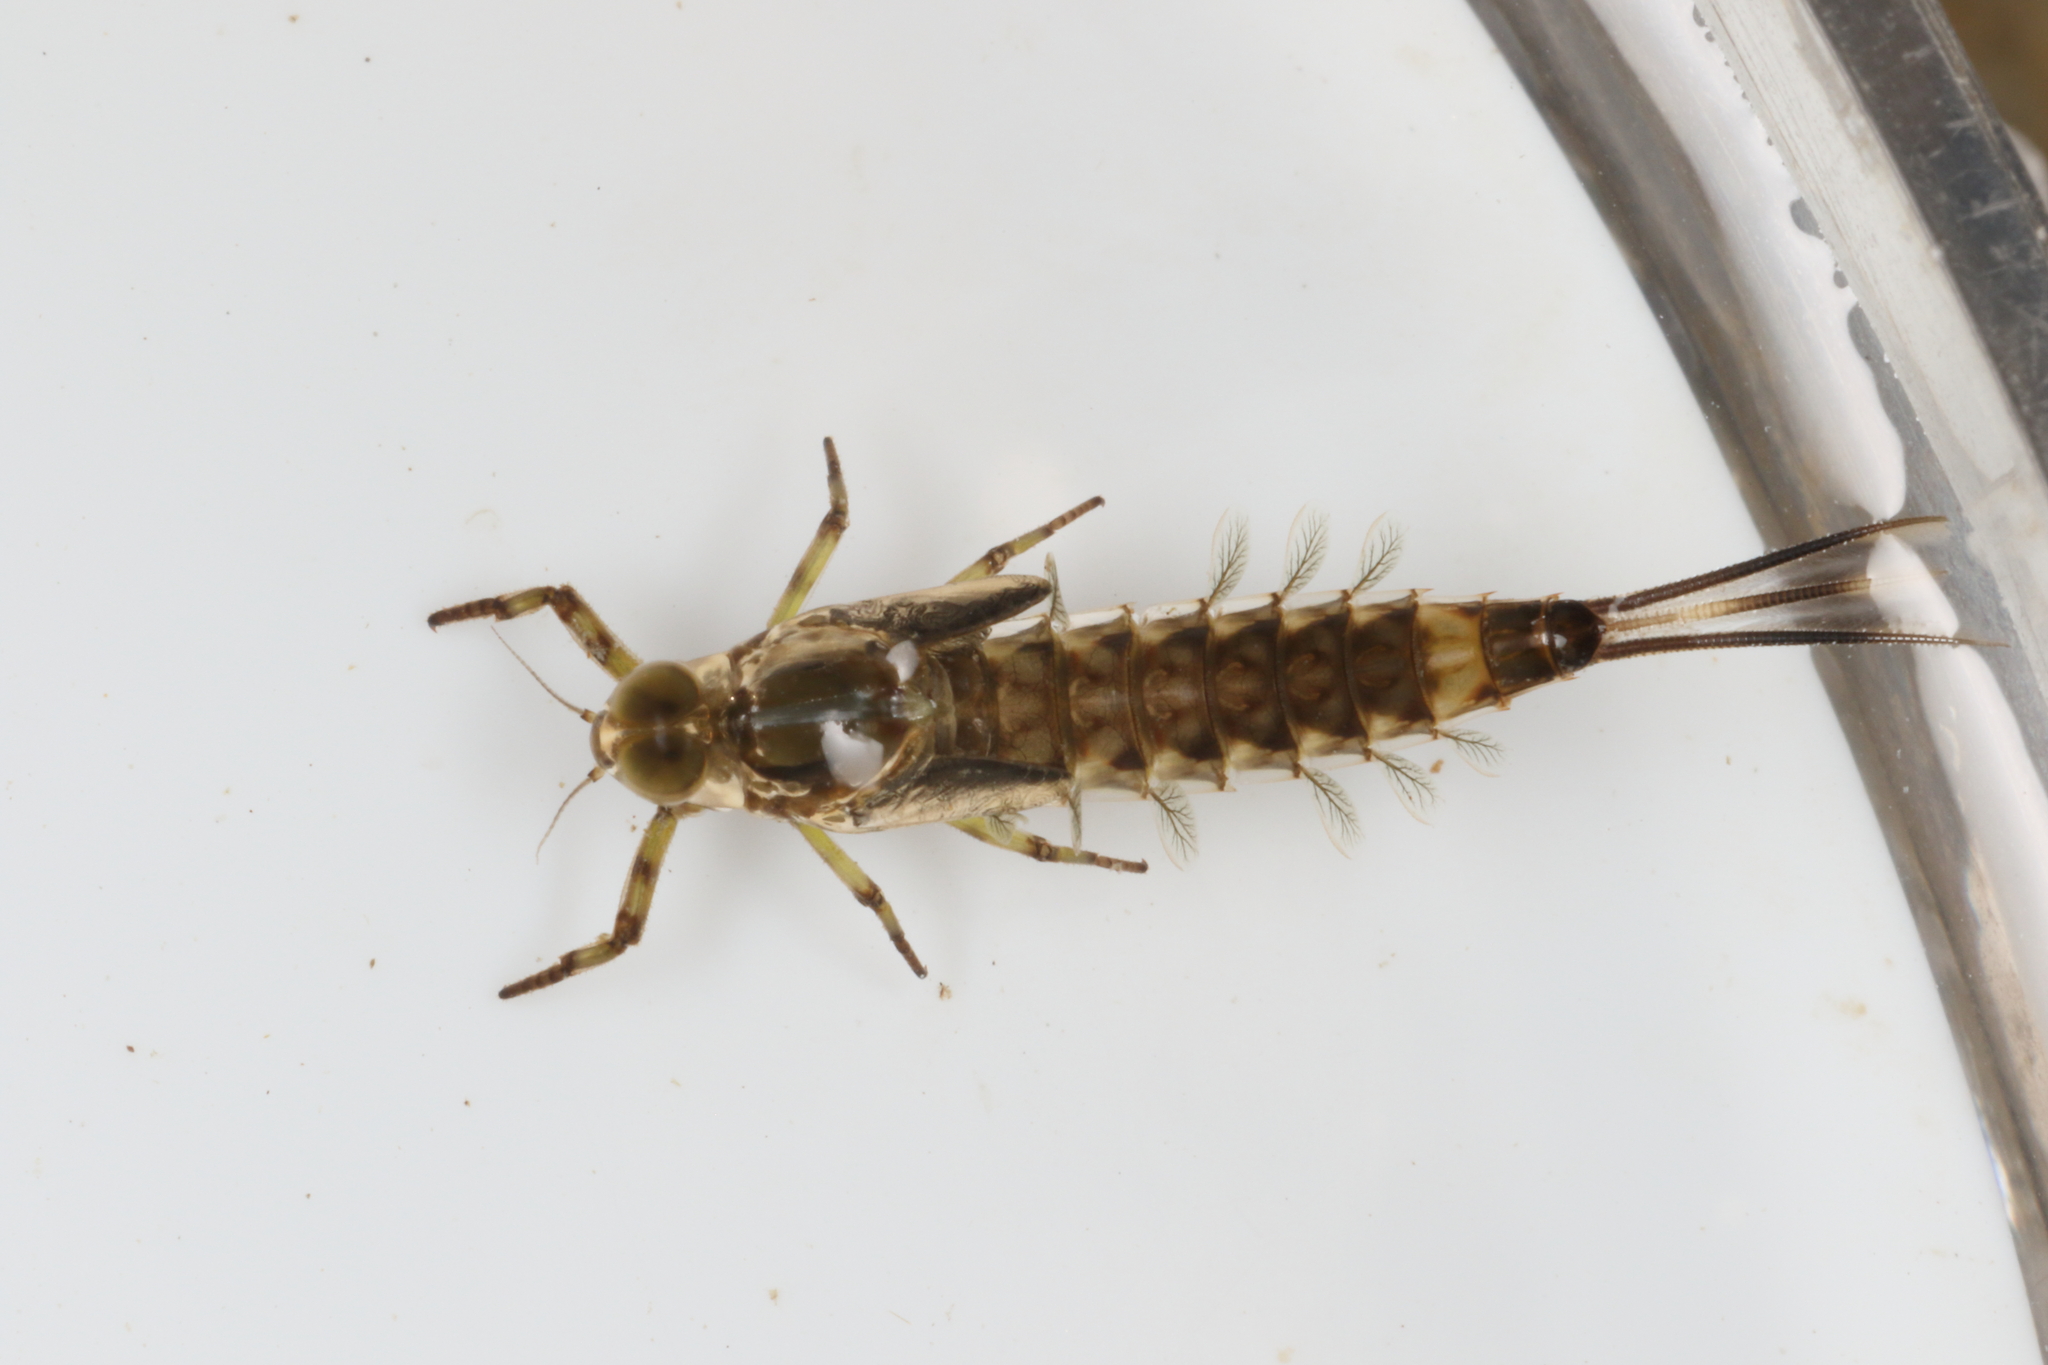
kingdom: Animalia
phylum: Arthropoda
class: Insecta
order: Ephemeroptera
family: Nesameletidae
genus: Nesameletus
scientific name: Nesameletus ornatus
